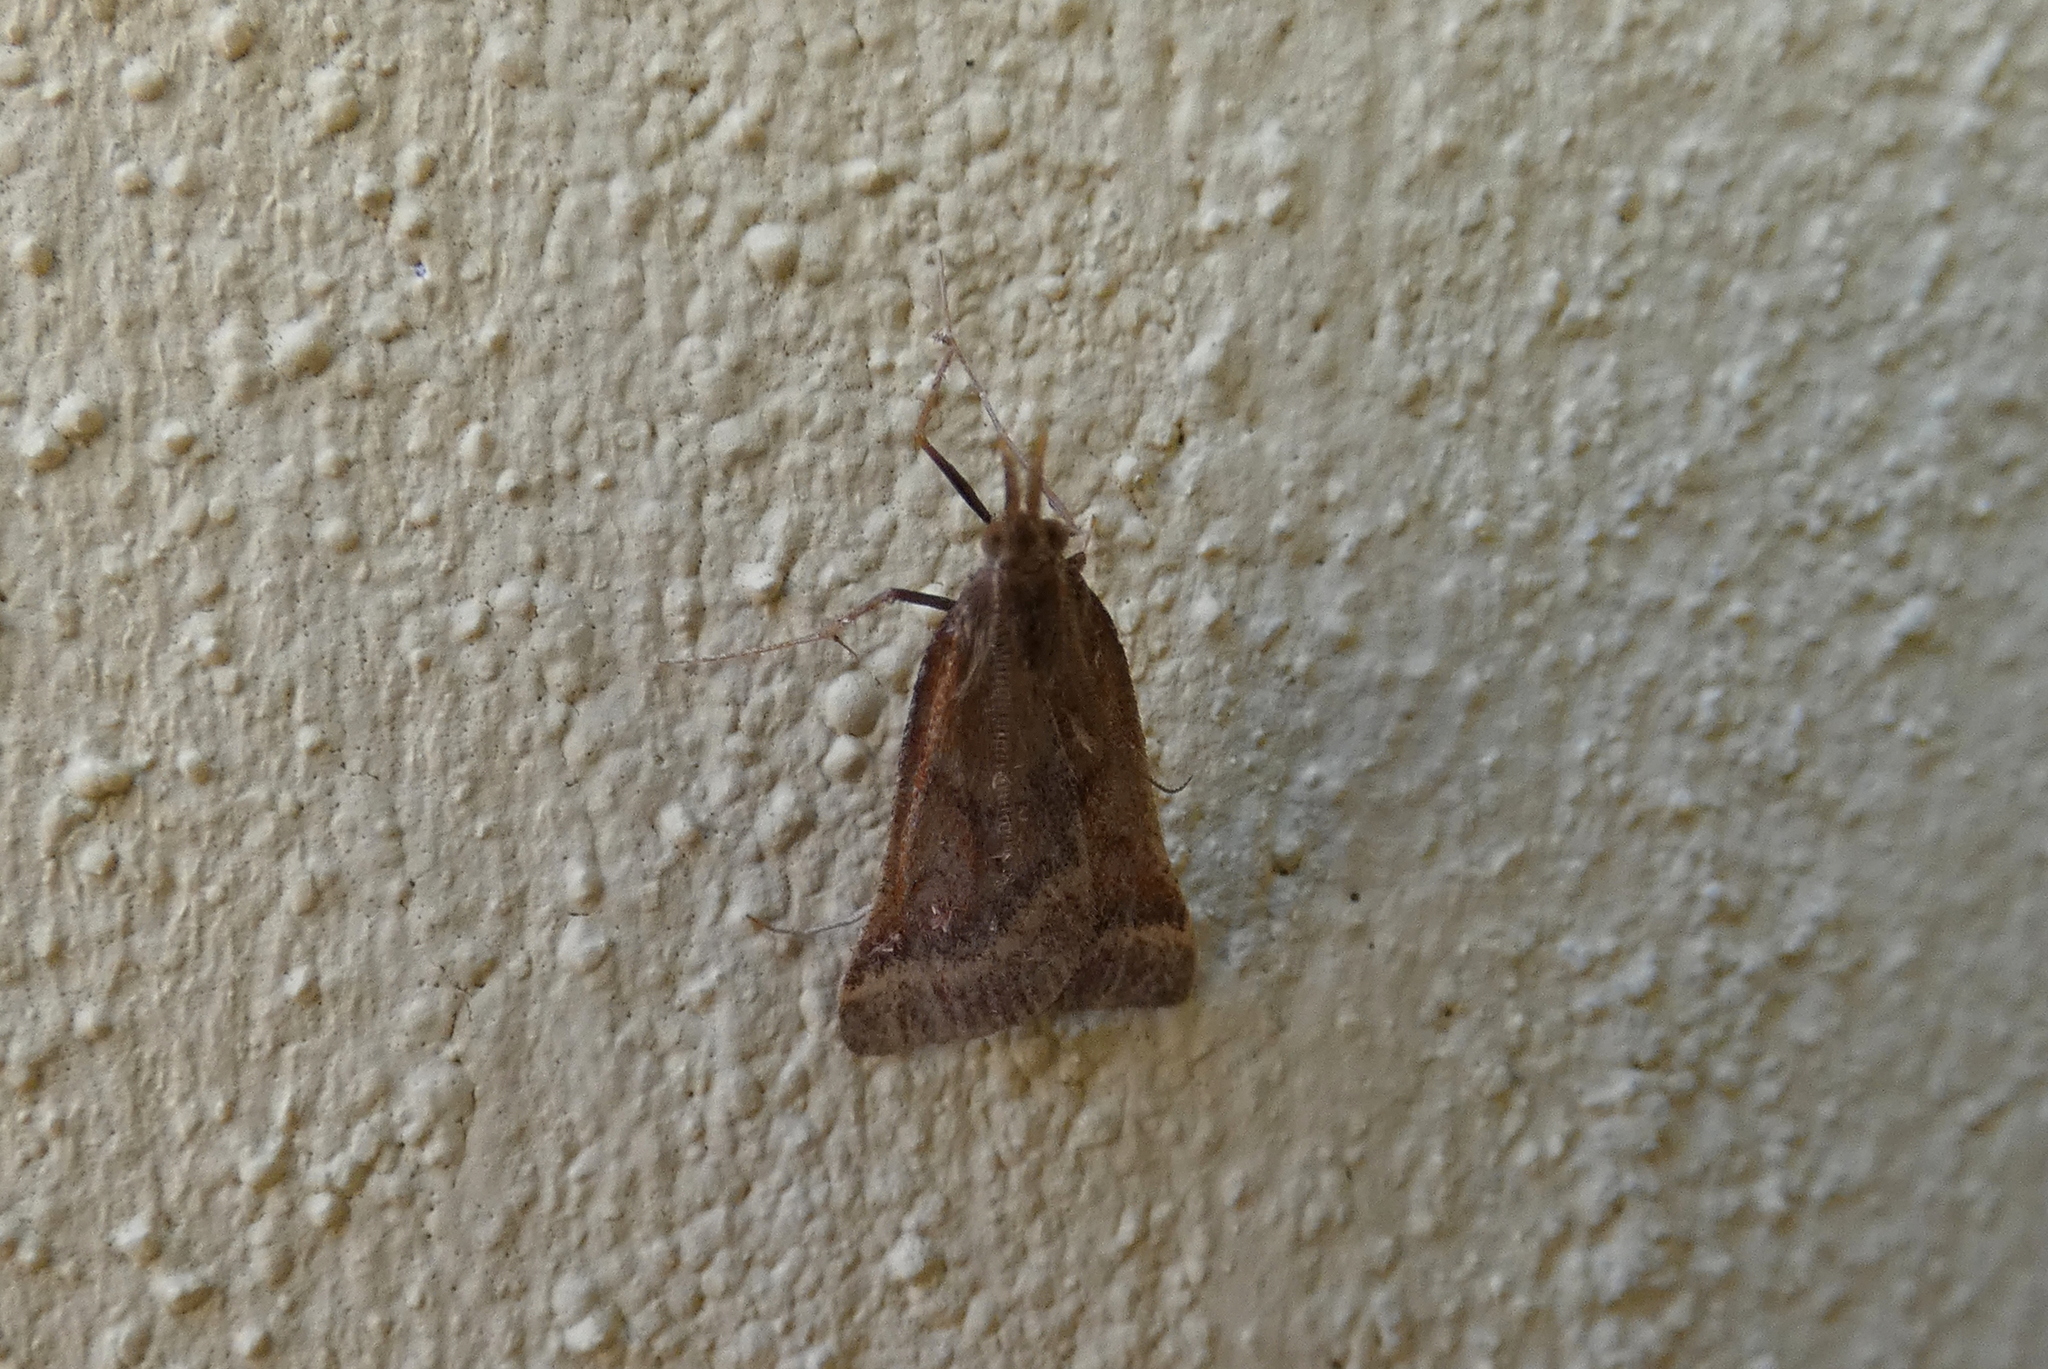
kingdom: Animalia
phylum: Arthropoda
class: Insecta
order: Lepidoptera
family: Pyralidae
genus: Synaphe
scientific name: Synaphe punctalis
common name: Long-legged tabby
